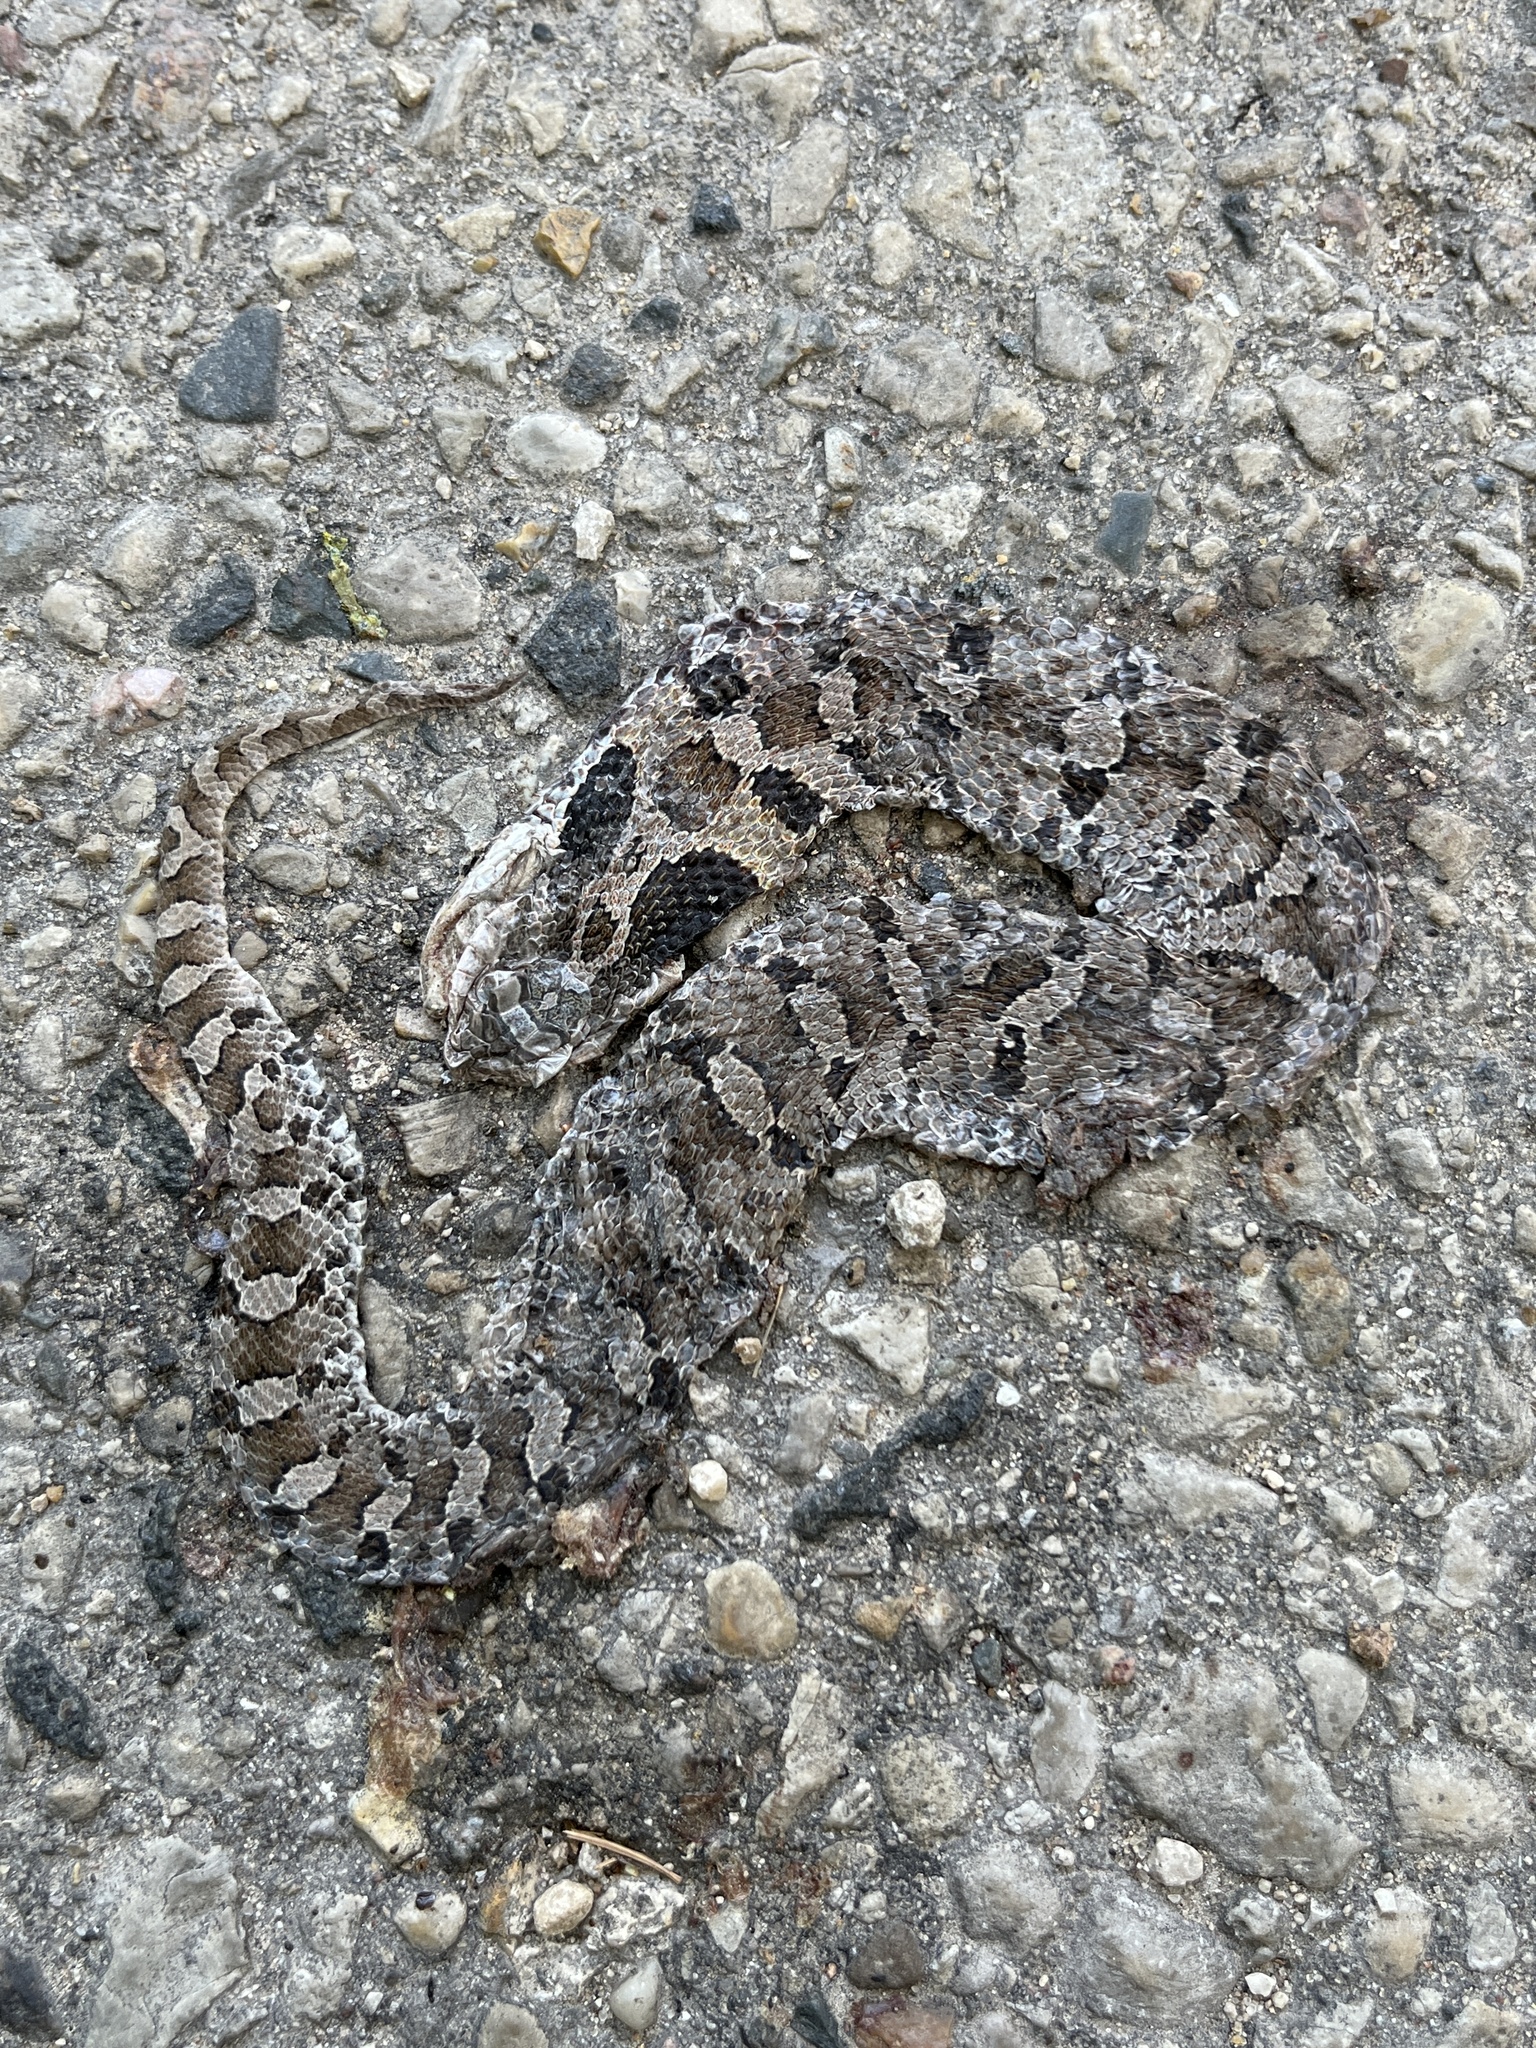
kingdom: Animalia
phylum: Chordata
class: Squamata
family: Colubridae
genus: Heterodon
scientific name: Heterodon platirhinos
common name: Eastern hognose snake
